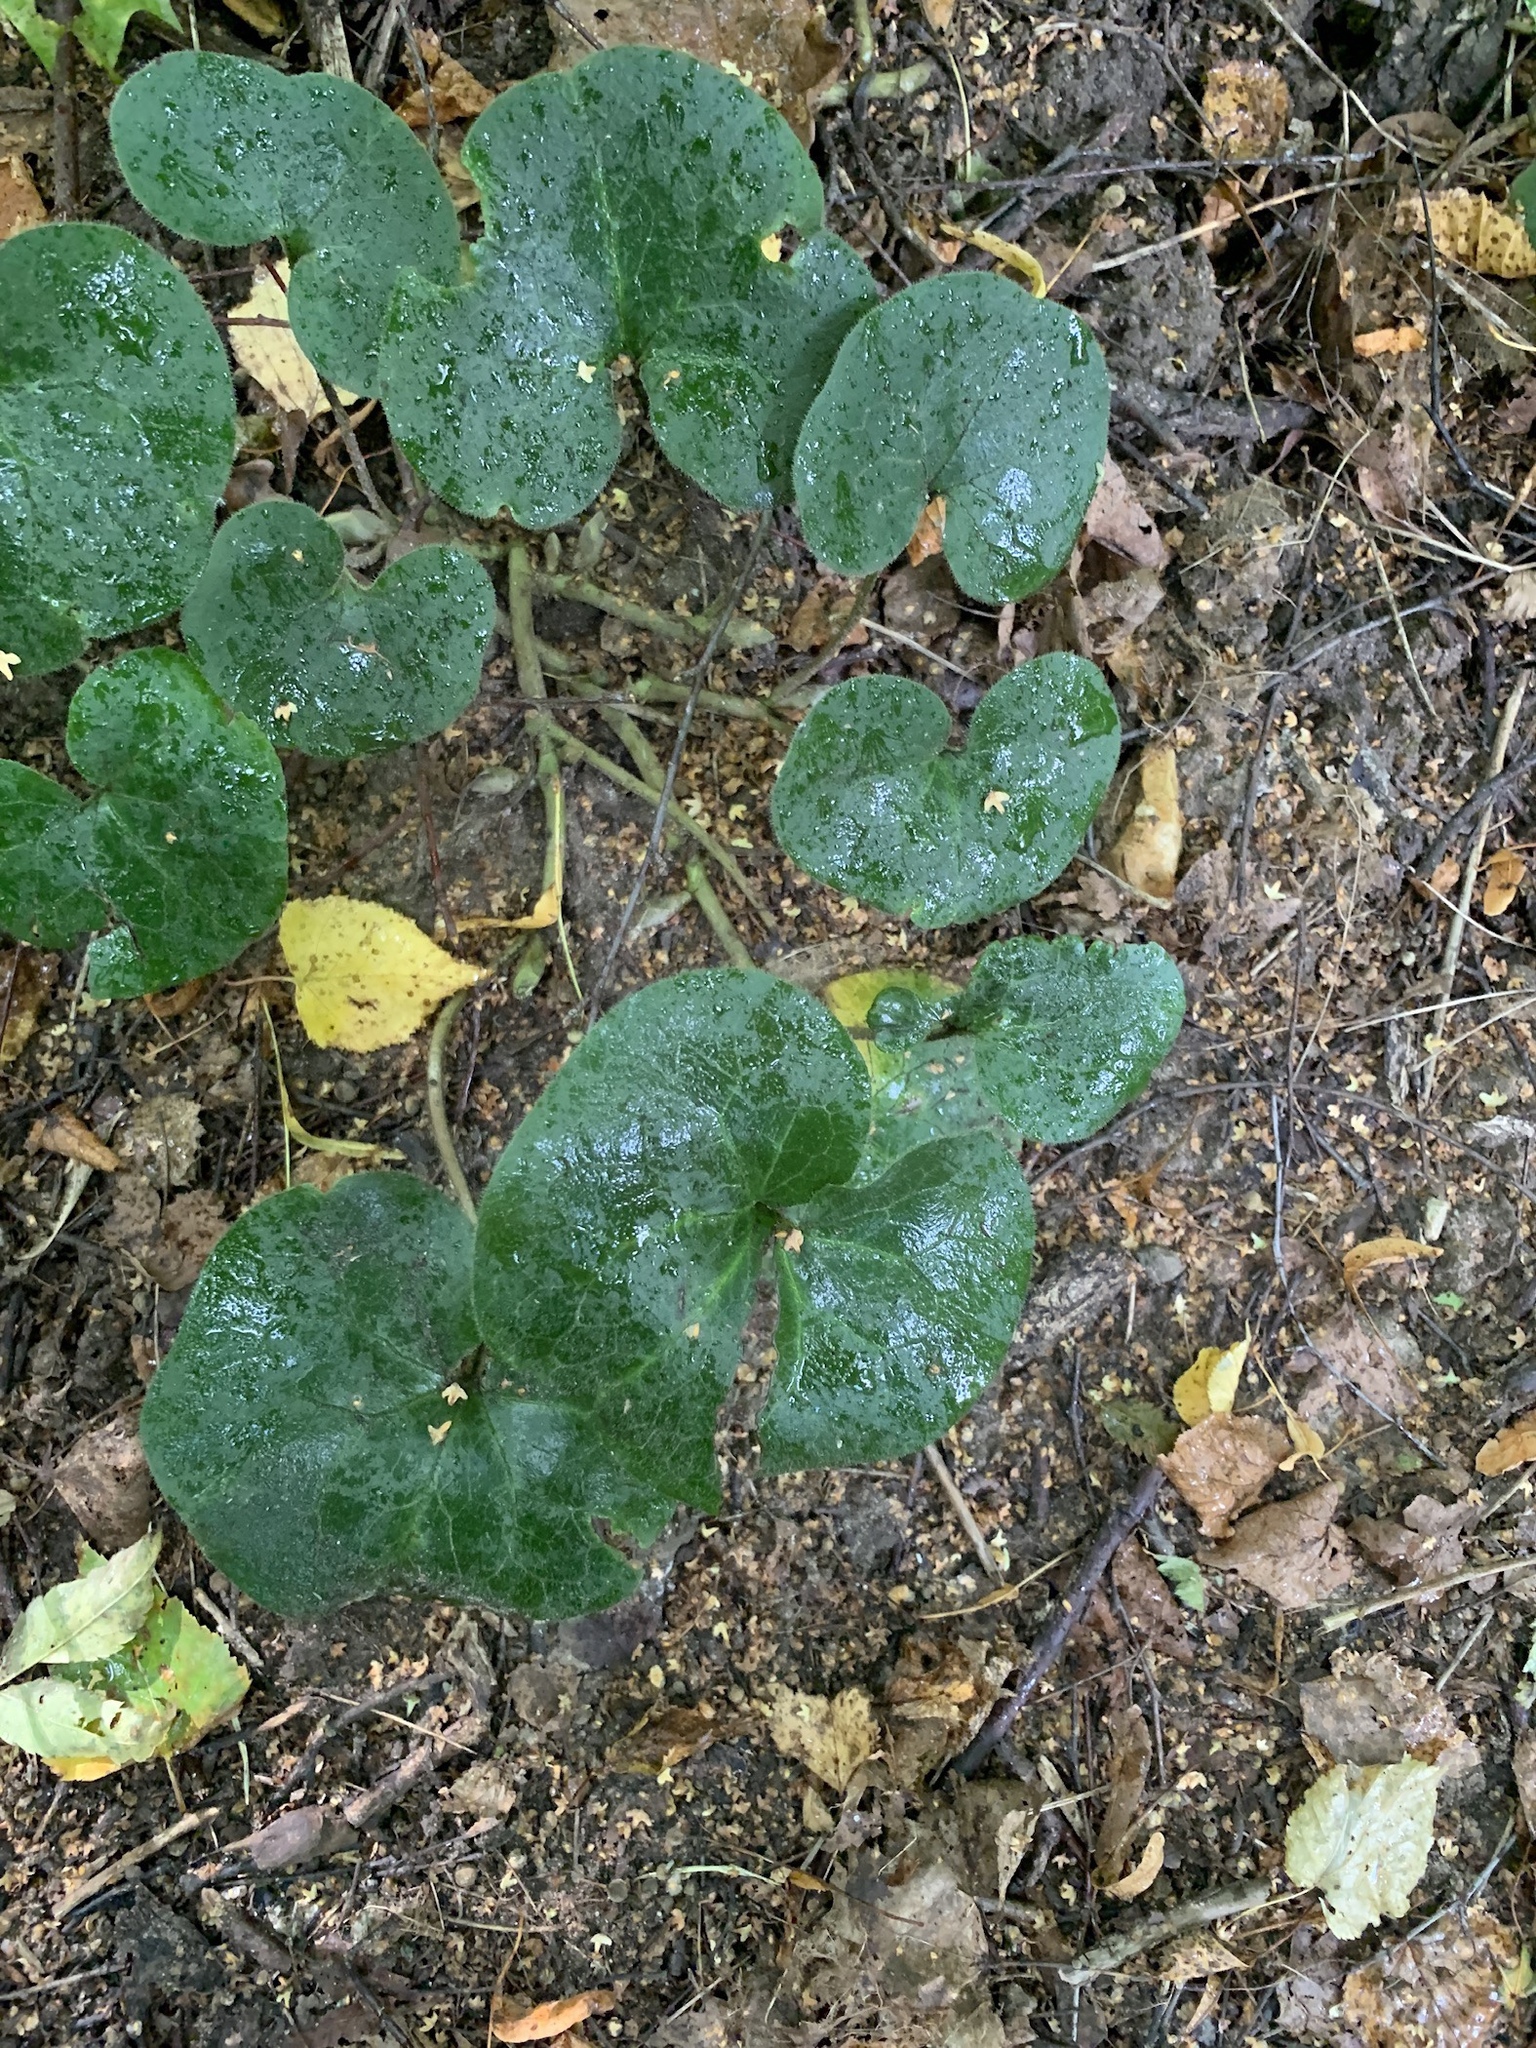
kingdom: Plantae
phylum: Tracheophyta
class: Magnoliopsida
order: Piperales
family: Aristolochiaceae
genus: Asarum
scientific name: Asarum europaeum
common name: Asarabacca
